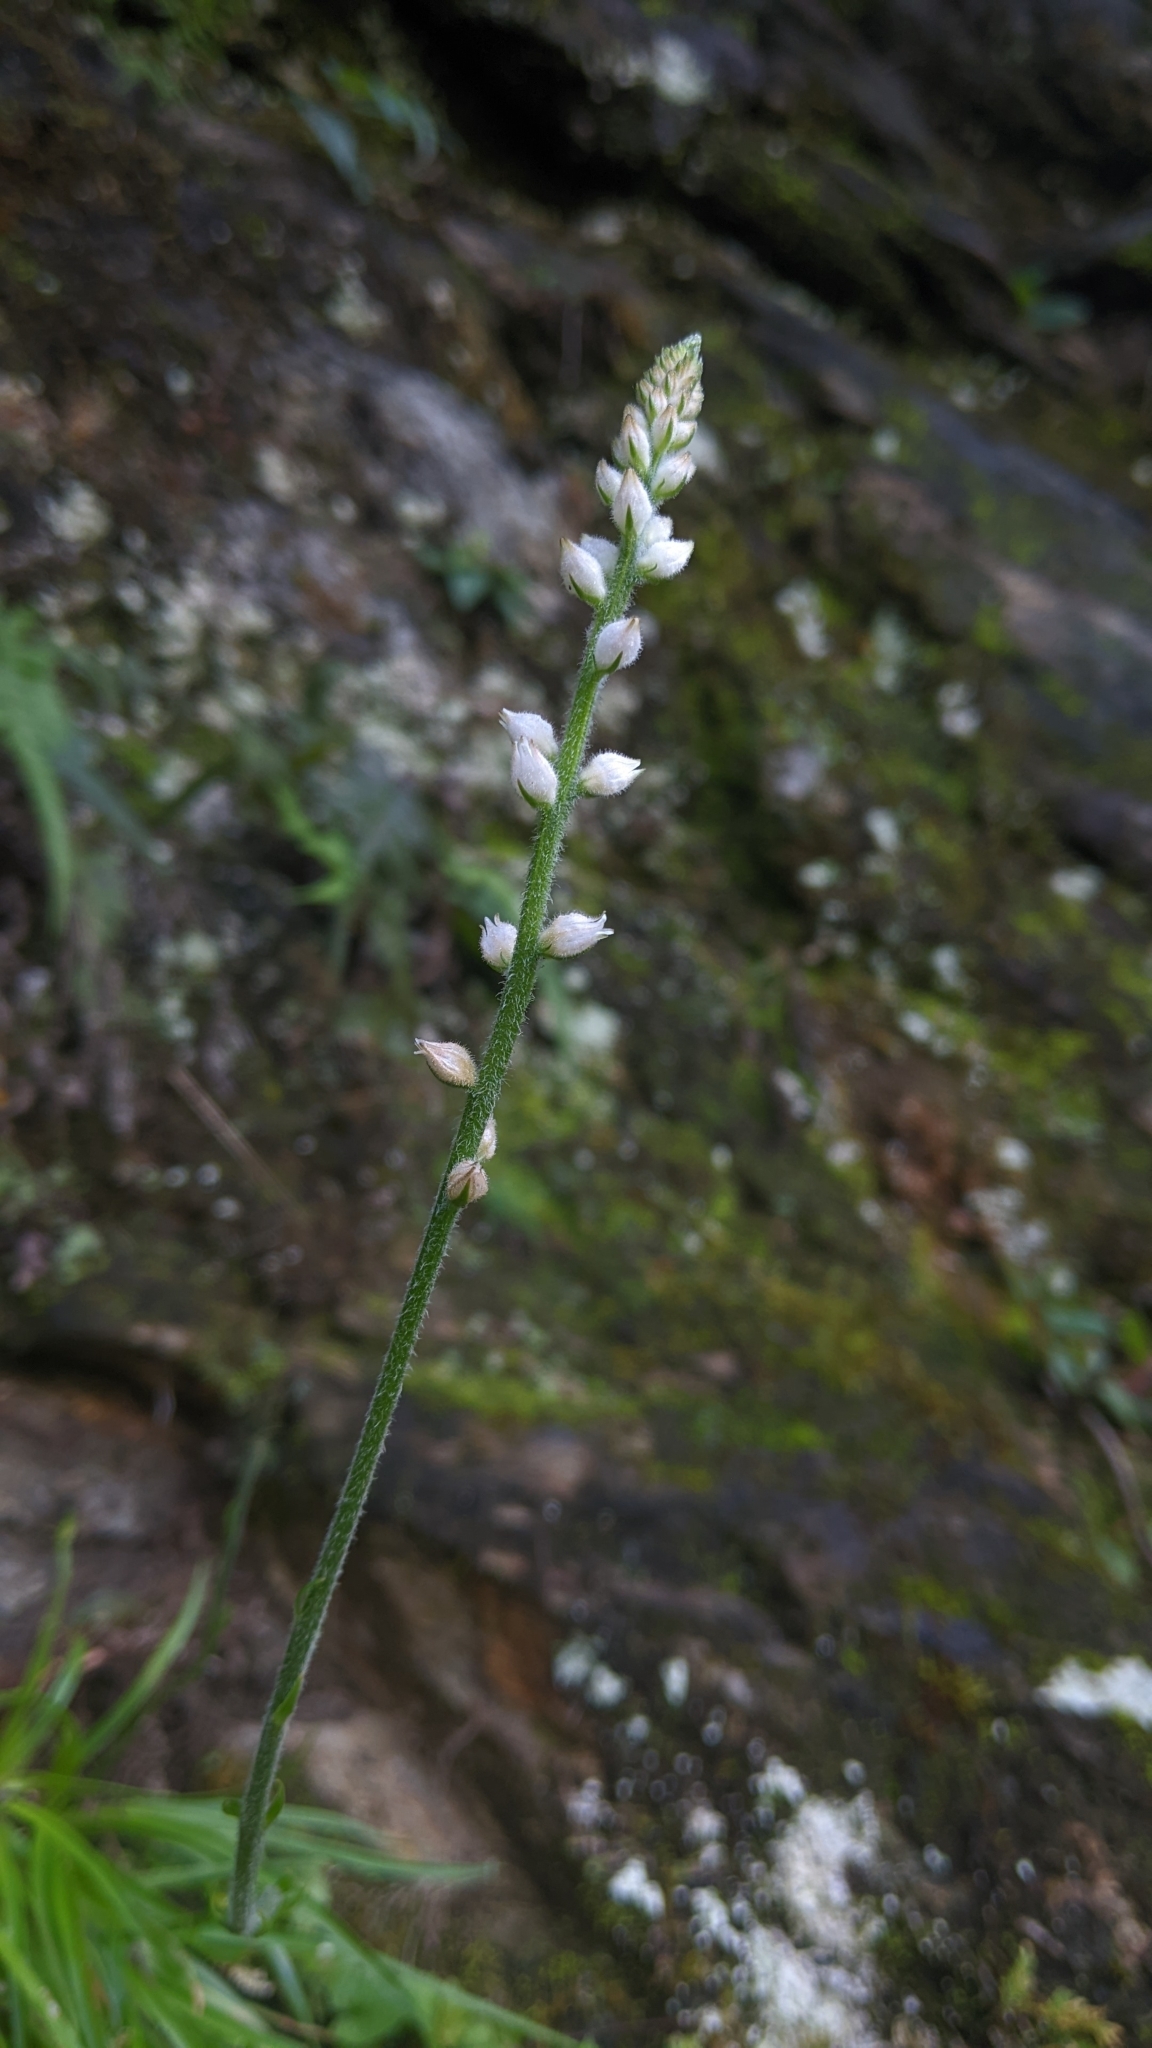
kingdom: Plantae
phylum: Tracheophyta
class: Liliopsida
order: Dioscoreales
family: Nartheciaceae
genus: Aletris
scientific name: Aletris spicata
